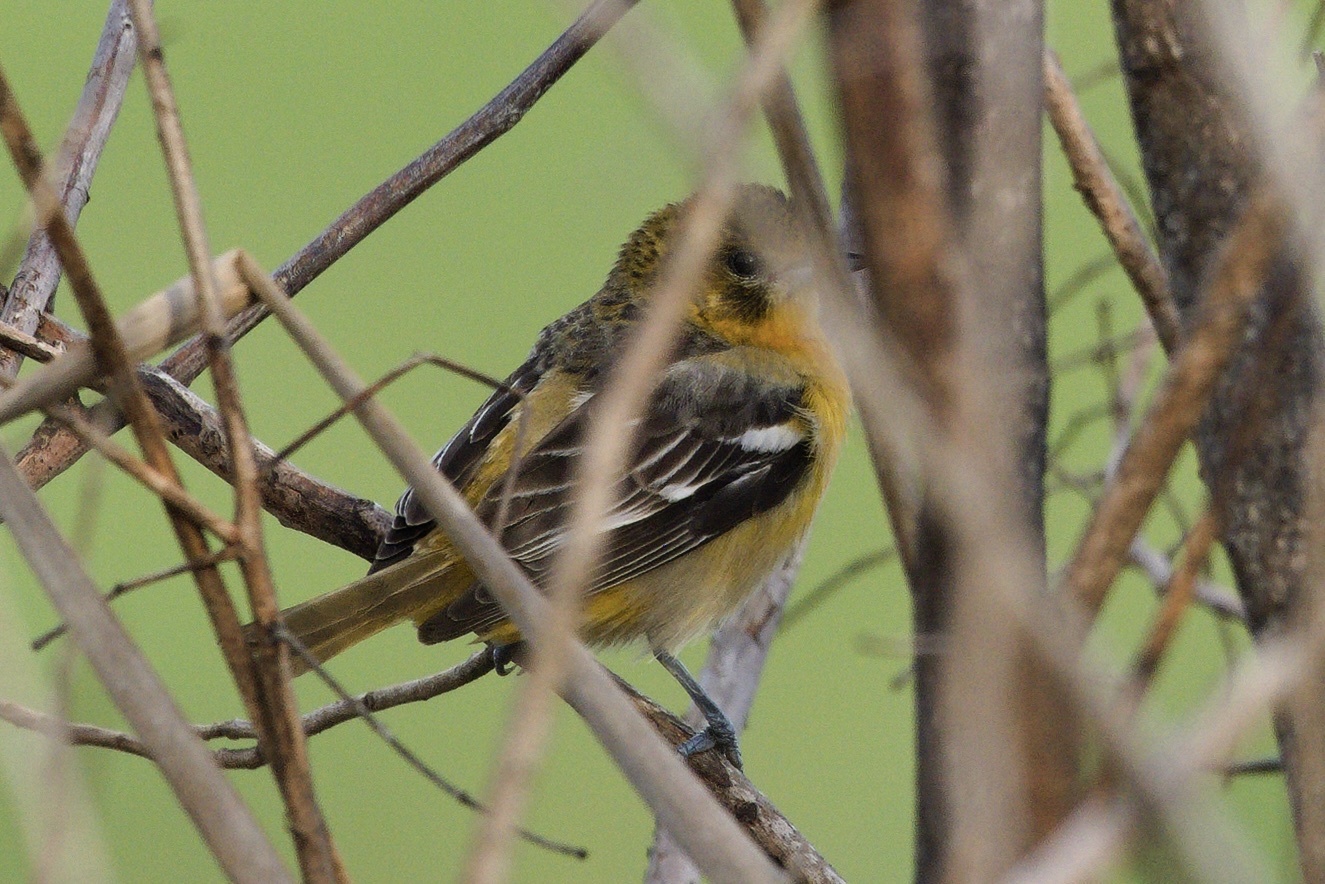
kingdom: Animalia
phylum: Chordata
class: Aves
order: Passeriformes
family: Icteridae
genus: Icterus
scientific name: Icterus galbula
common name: Baltimore oriole
